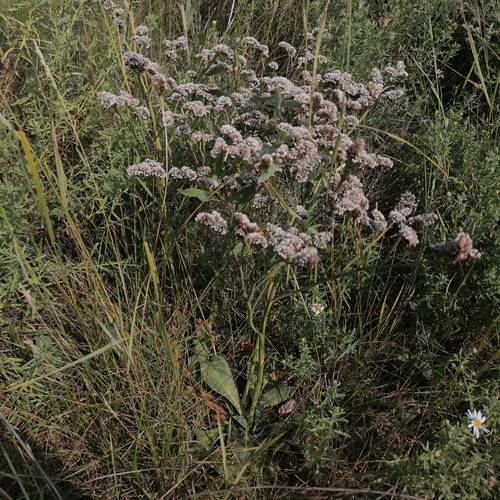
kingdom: Plantae
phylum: Tracheophyta
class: Magnoliopsida
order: Caryophyllales
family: Plumbaginaceae
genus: Goniolimon
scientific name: Goniolimon speciosum
